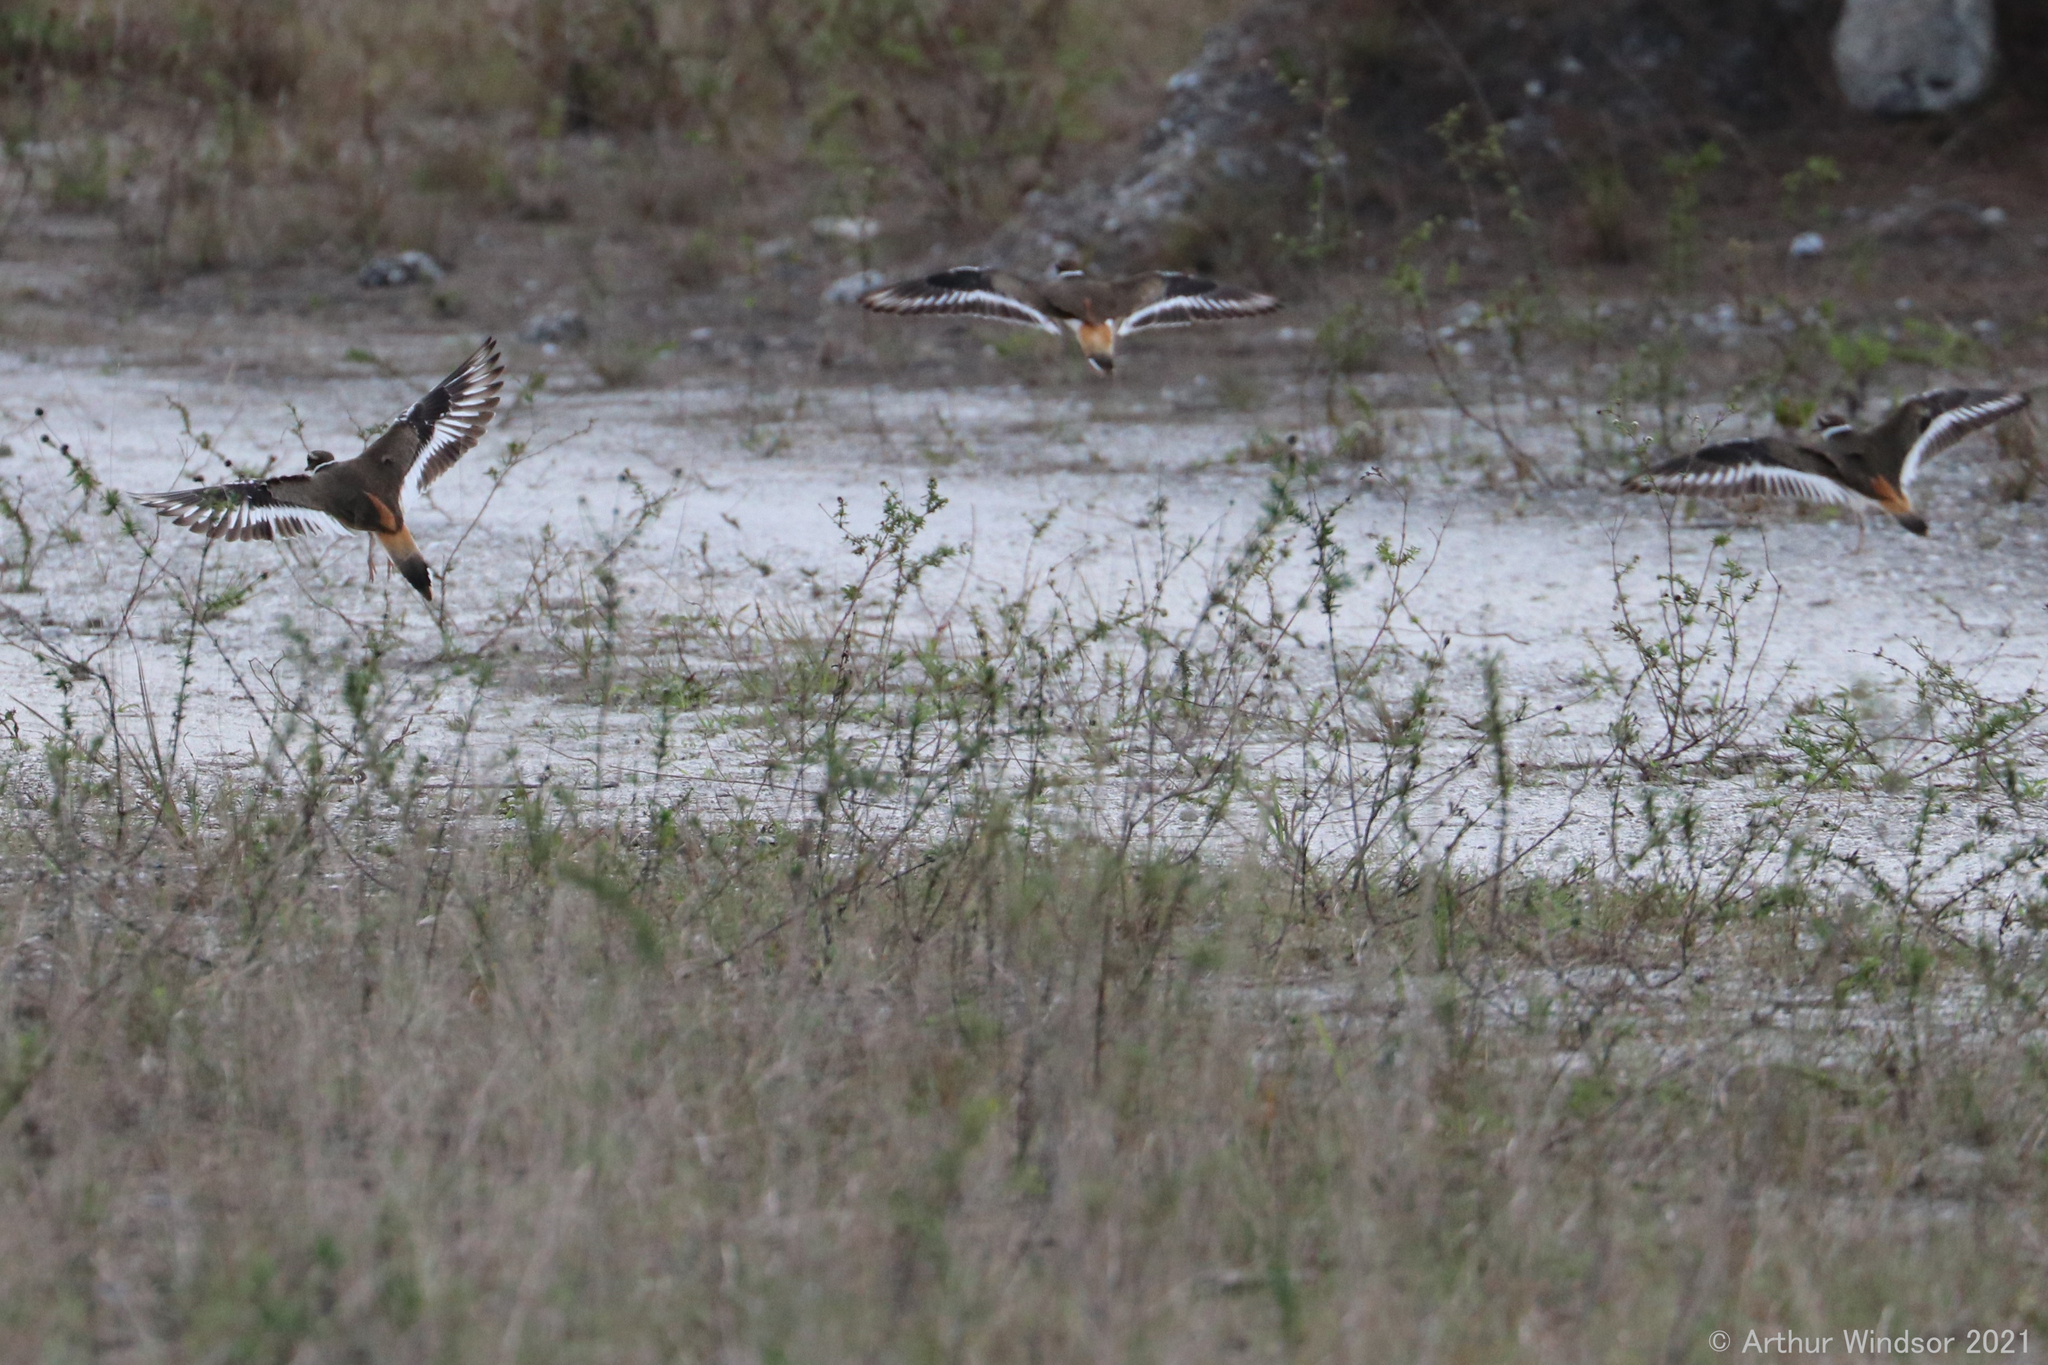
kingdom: Animalia
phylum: Chordata
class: Aves
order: Charadriiformes
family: Charadriidae
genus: Charadrius
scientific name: Charadrius vociferus
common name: Killdeer
